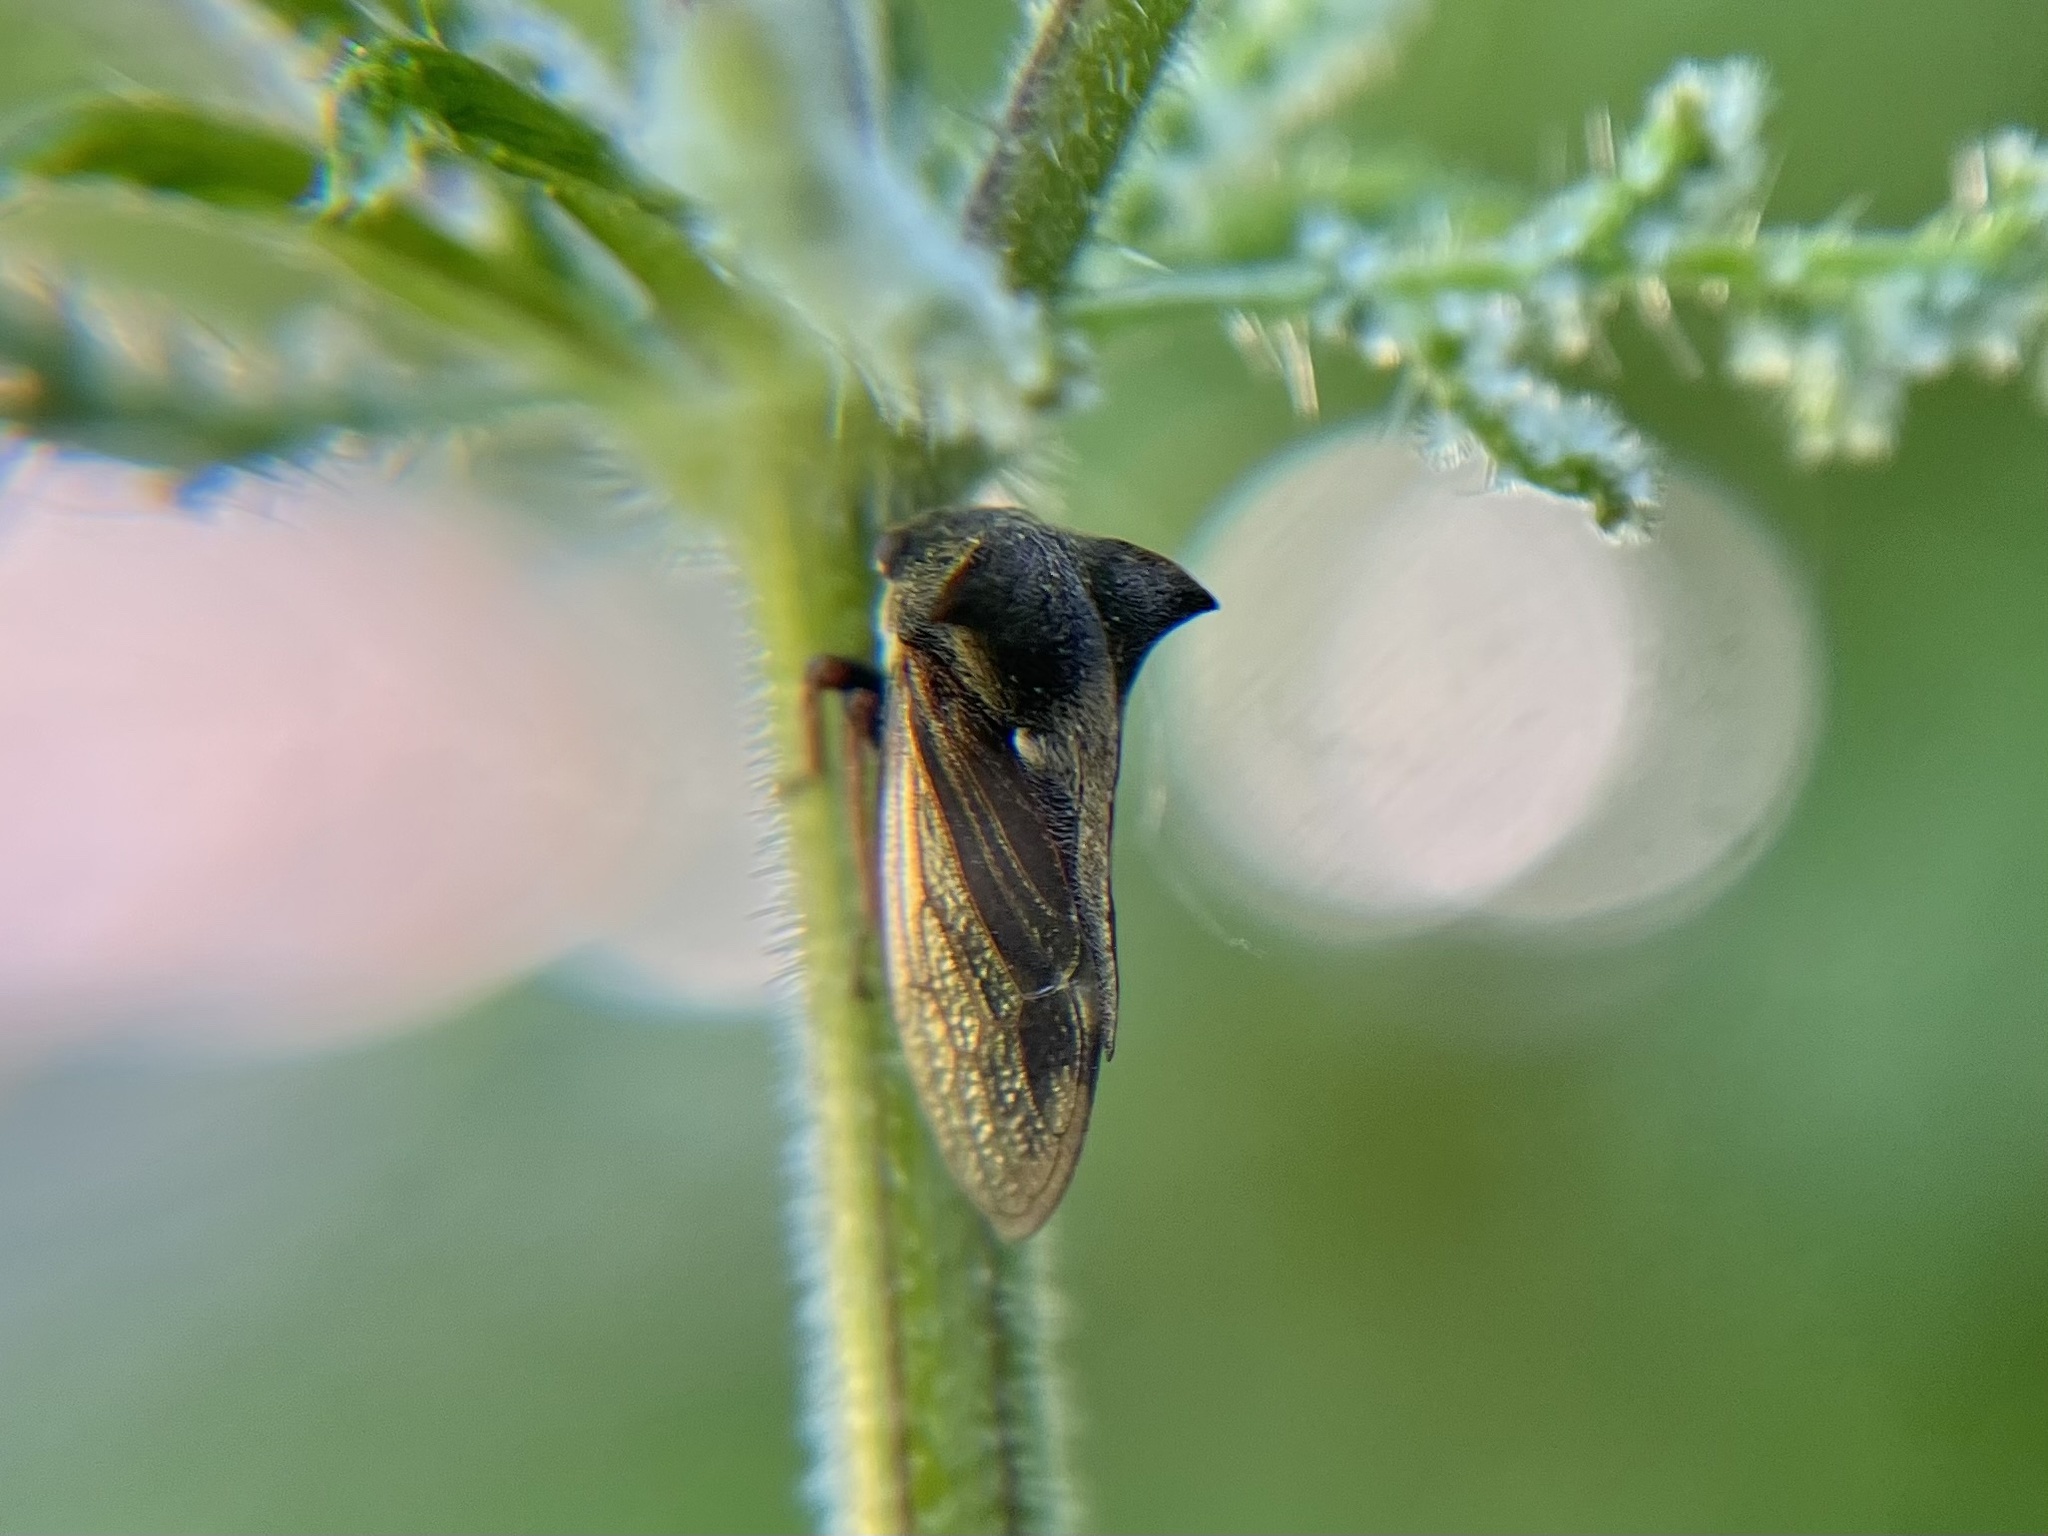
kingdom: Animalia
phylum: Arthropoda
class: Insecta
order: Hemiptera
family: Membracidae
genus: Centrotus
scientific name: Centrotus cornuta
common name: Treehopper
